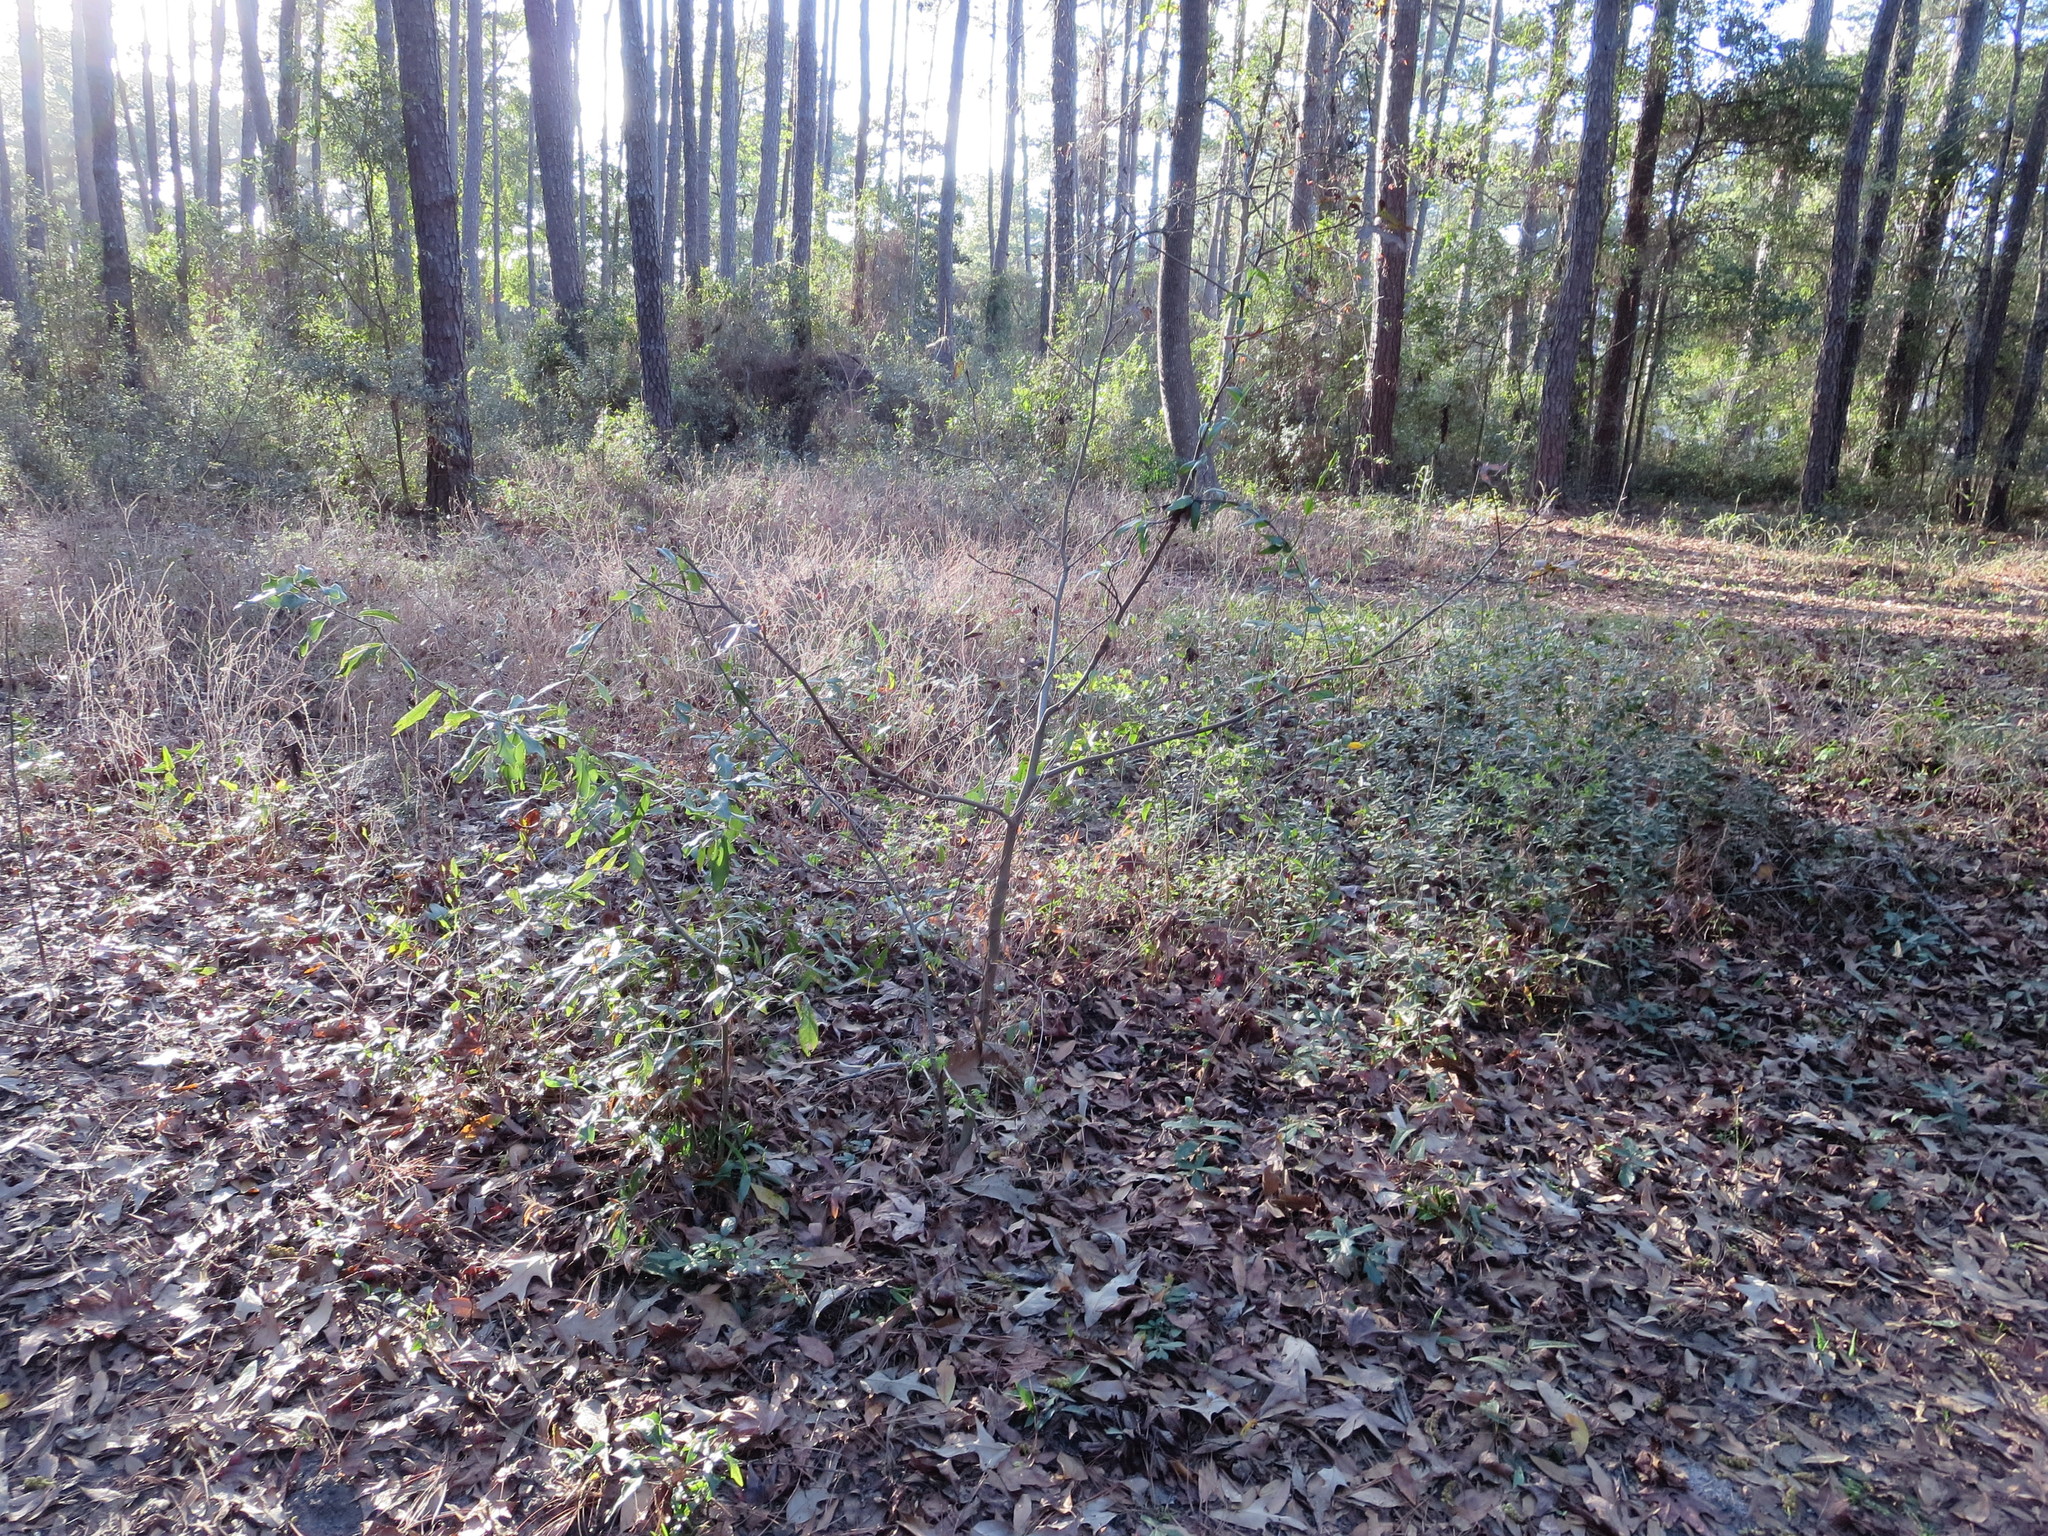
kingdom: Plantae
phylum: Tracheophyta
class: Magnoliopsida
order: Saxifragales
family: Altingiaceae
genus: Liquidambar
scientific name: Liquidambar styraciflua
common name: Sweet gum
